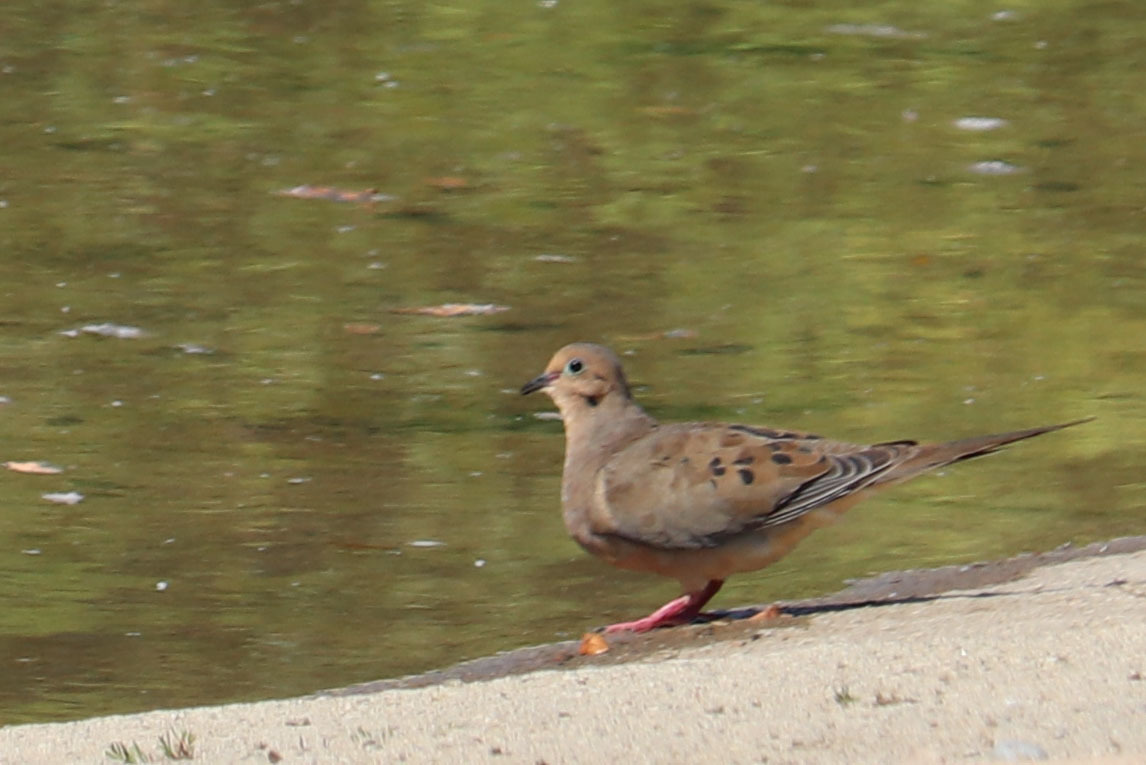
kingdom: Animalia
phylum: Chordata
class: Aves
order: Columbiformes
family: Columbidae
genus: Zenaida
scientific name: Zenaida macroura
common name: Mourning dove
